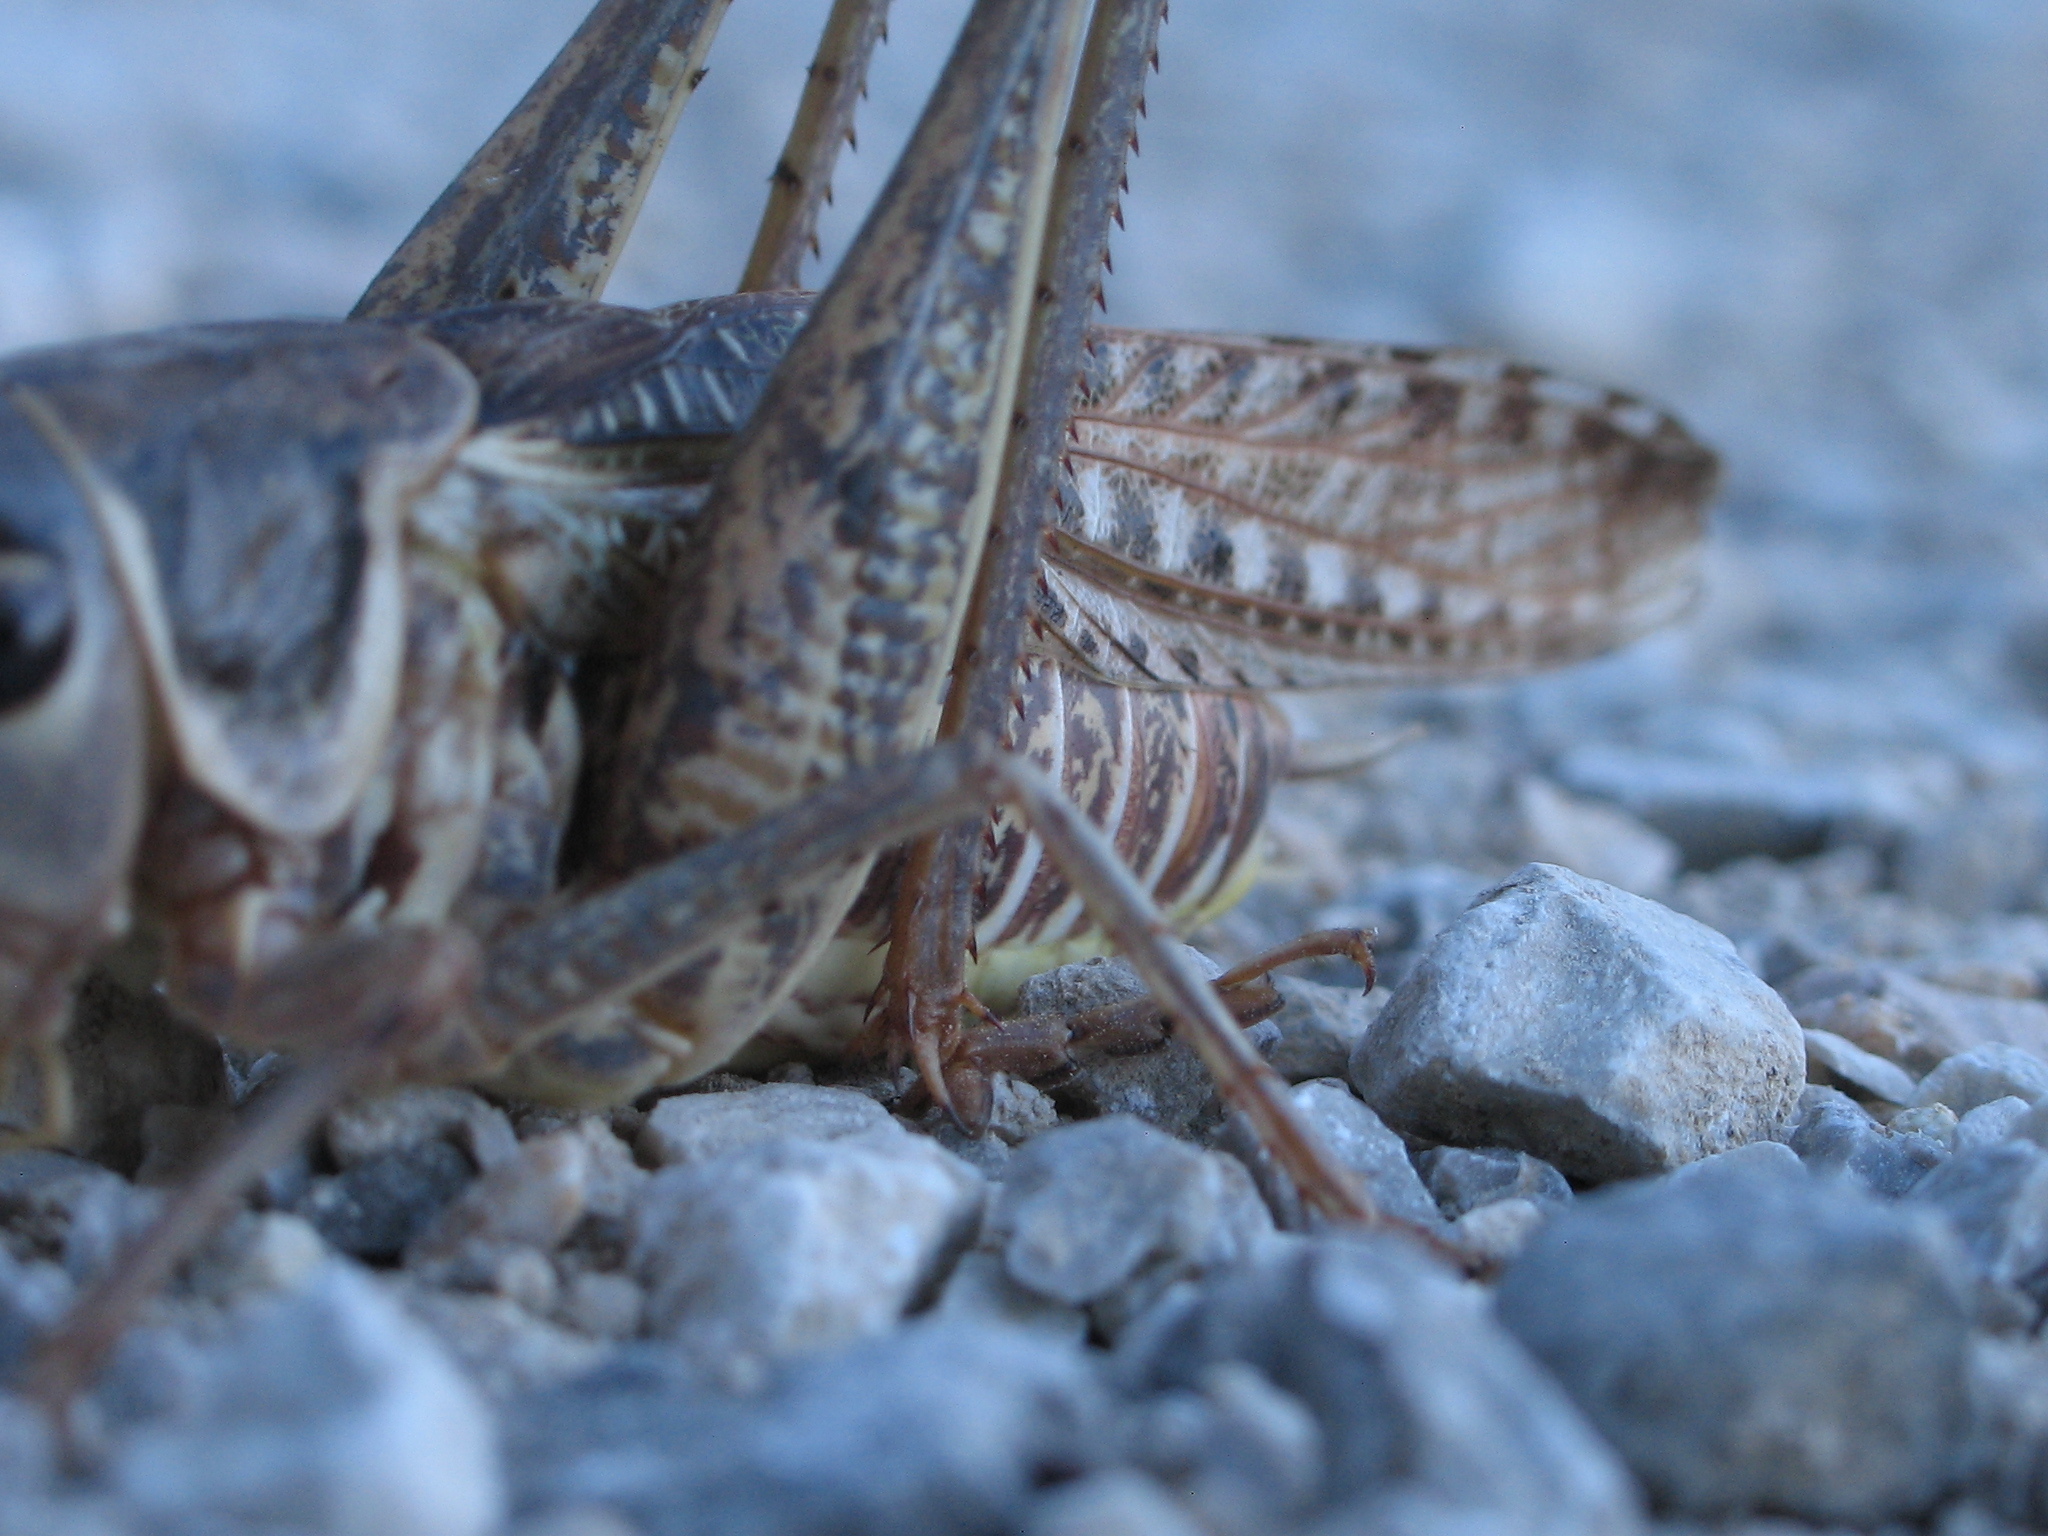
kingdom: Animalia
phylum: Arthropoda
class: Insecta
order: Orthoptera
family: Tettigoniidae
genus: Decticus
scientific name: Decticus albifrons
